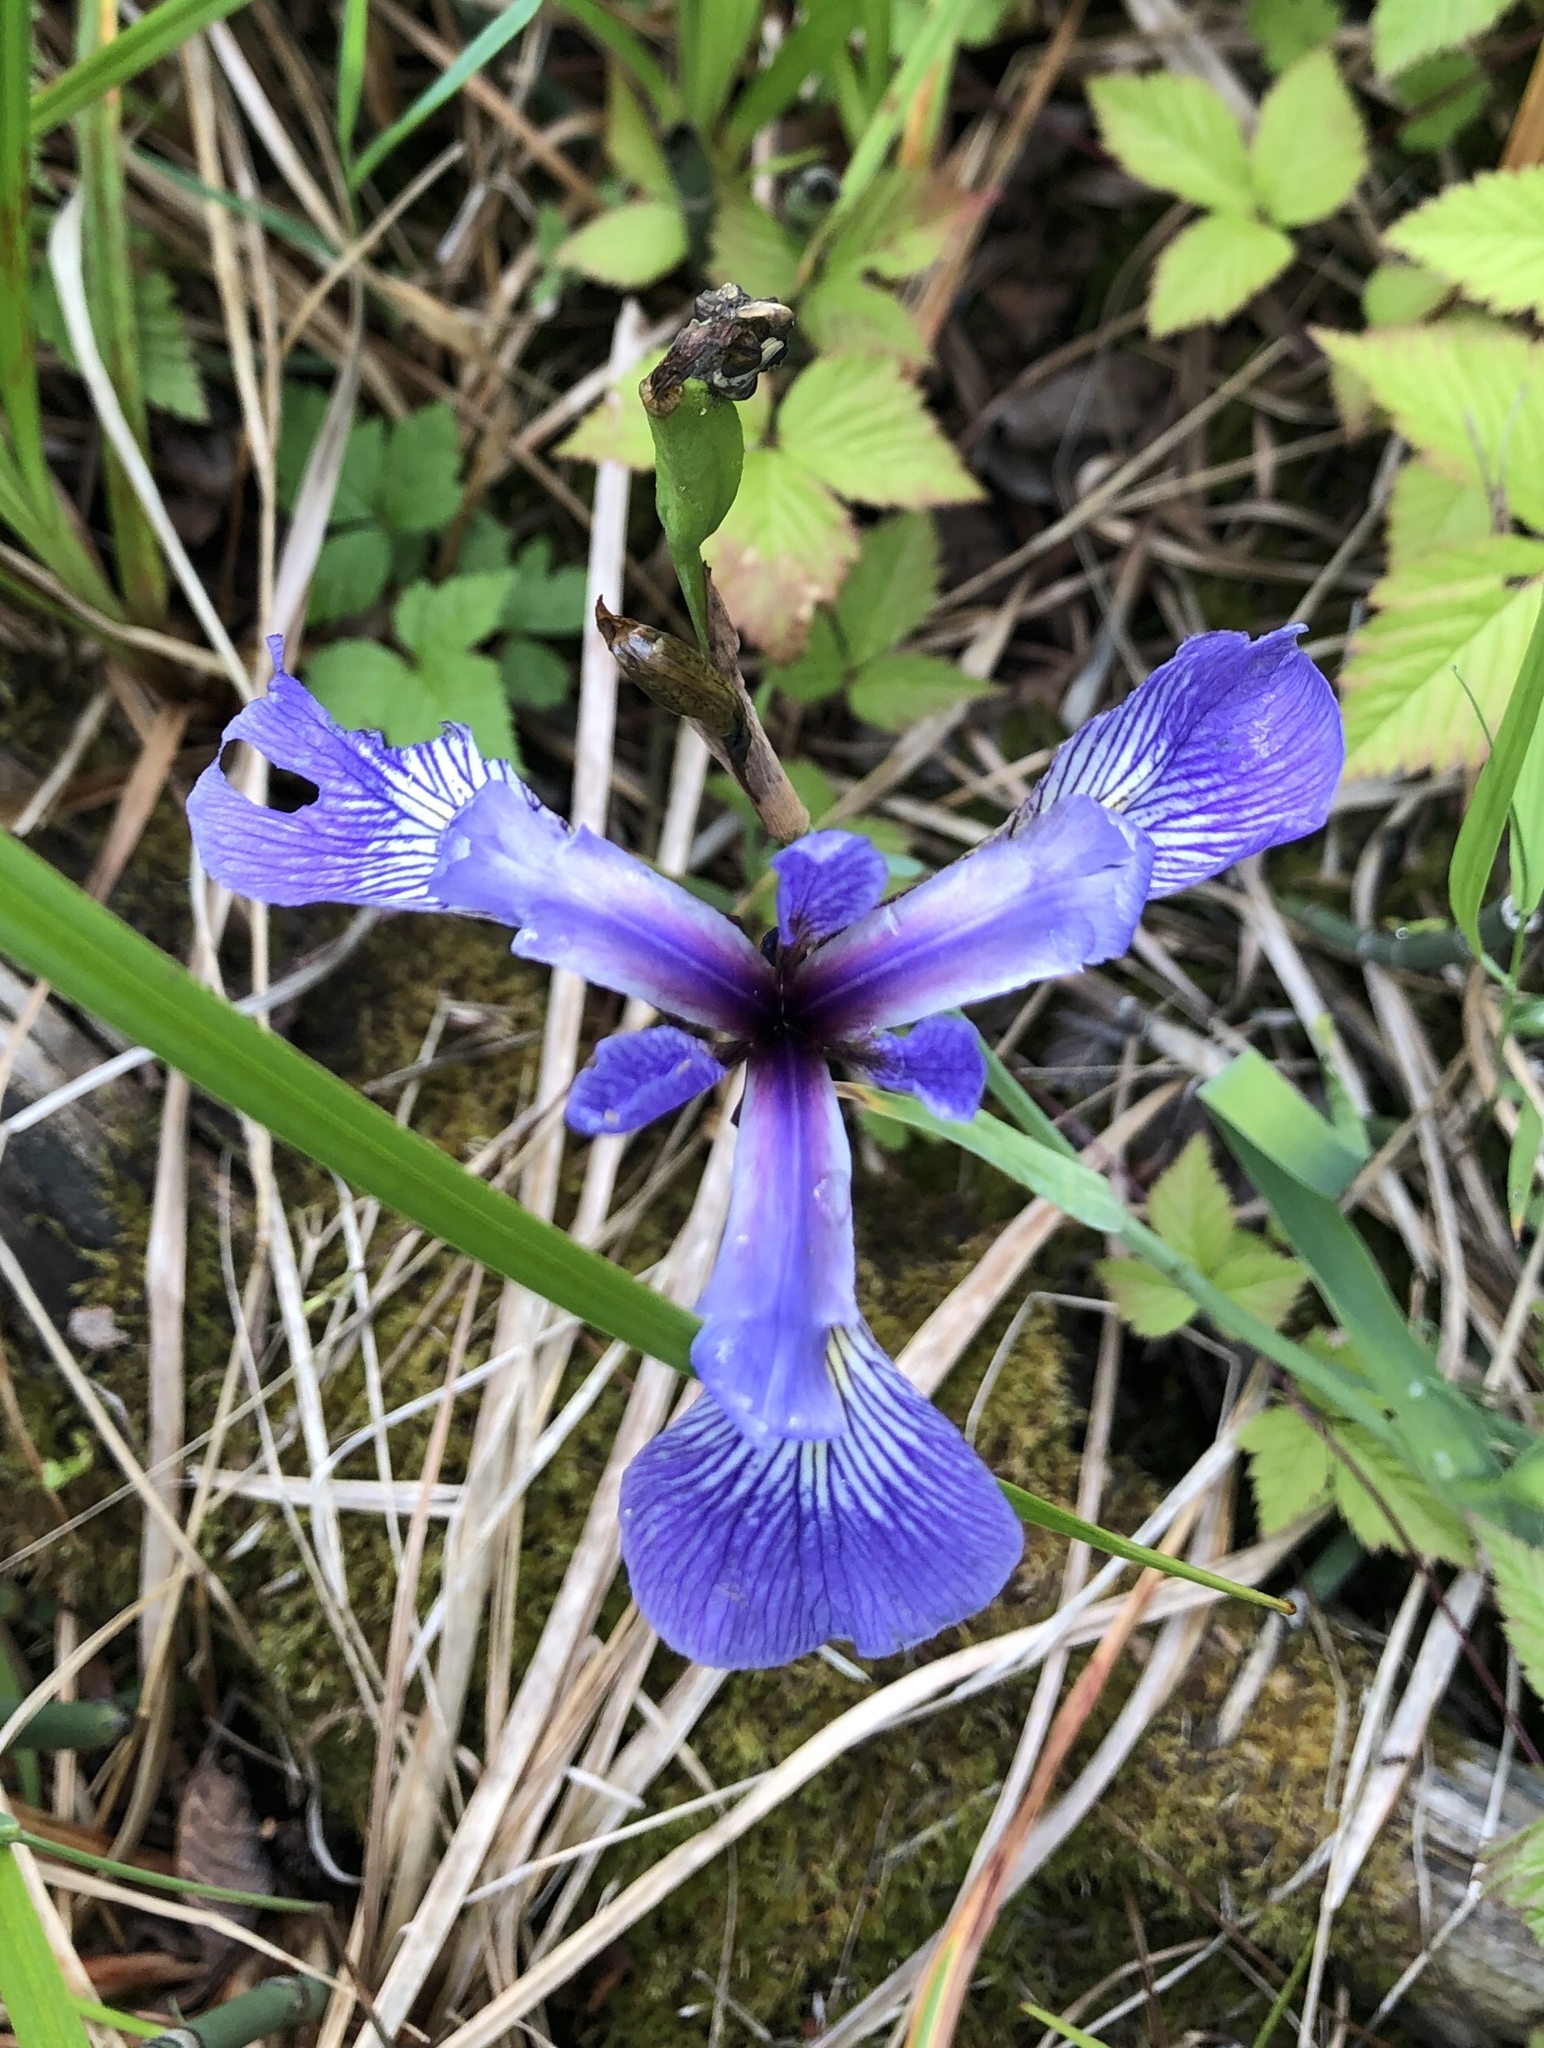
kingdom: Plantae
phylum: Tracheophyta
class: Liliopsida
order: Asparagales
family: Iridaceae
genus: Iris
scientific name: Iris versicolor
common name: Purple iris
